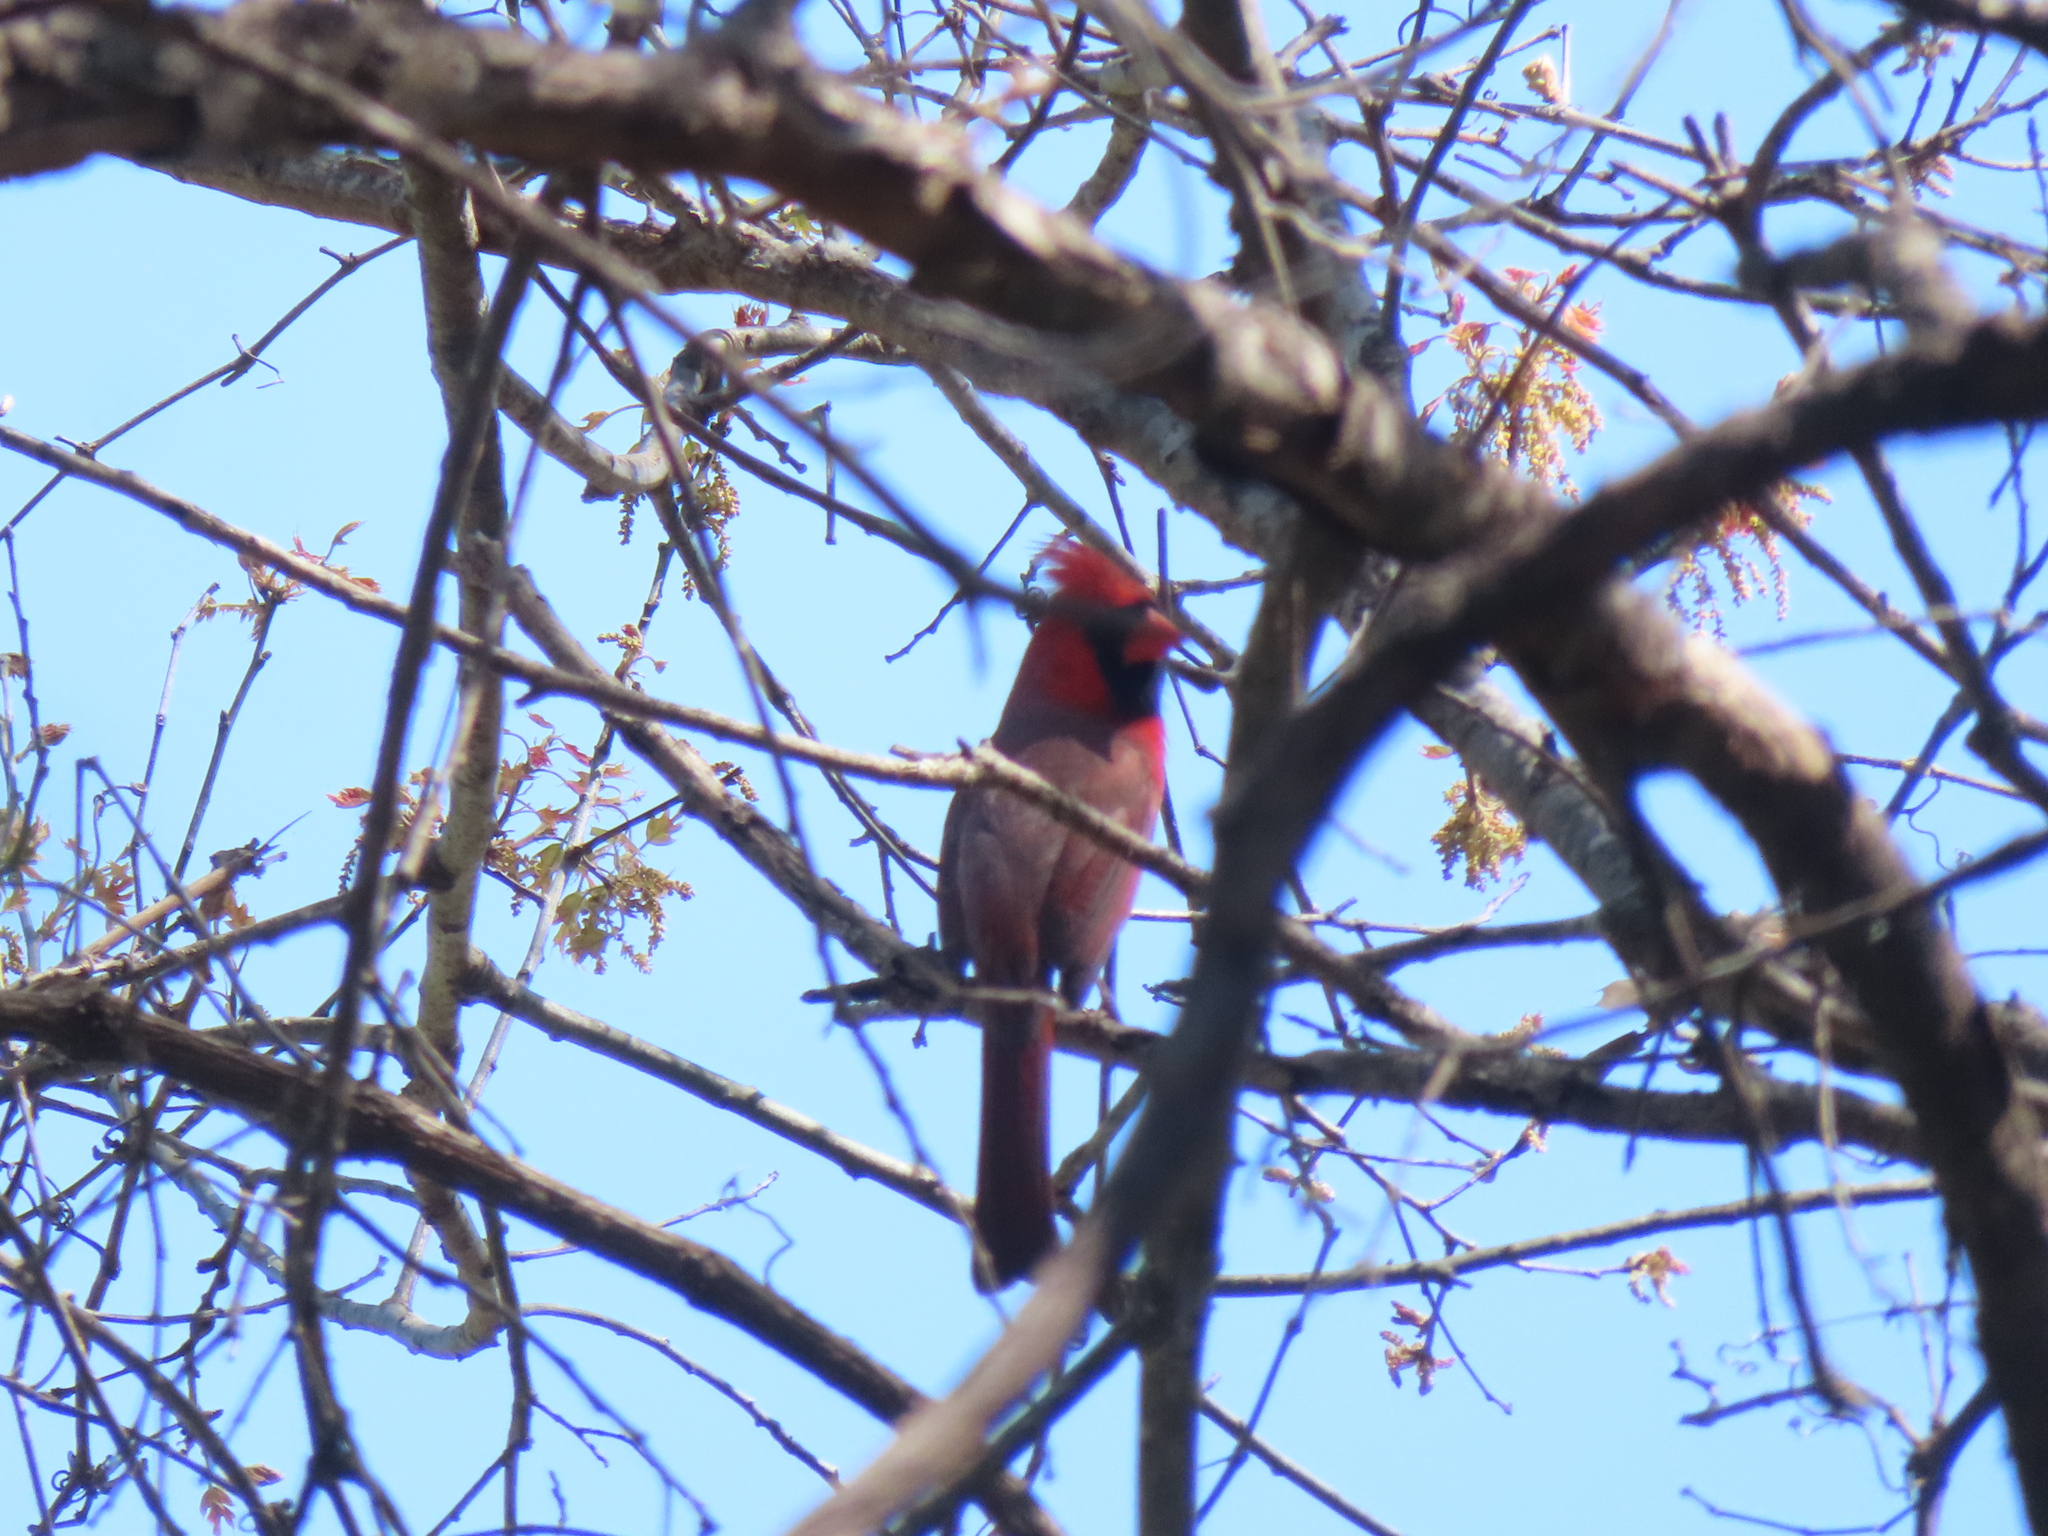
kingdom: Animalia
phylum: Chordata
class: Aves
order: Passeriformes
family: Cardinalidae
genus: Cardinalis
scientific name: Cardinalis cardinalis
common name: Northern cardinal
